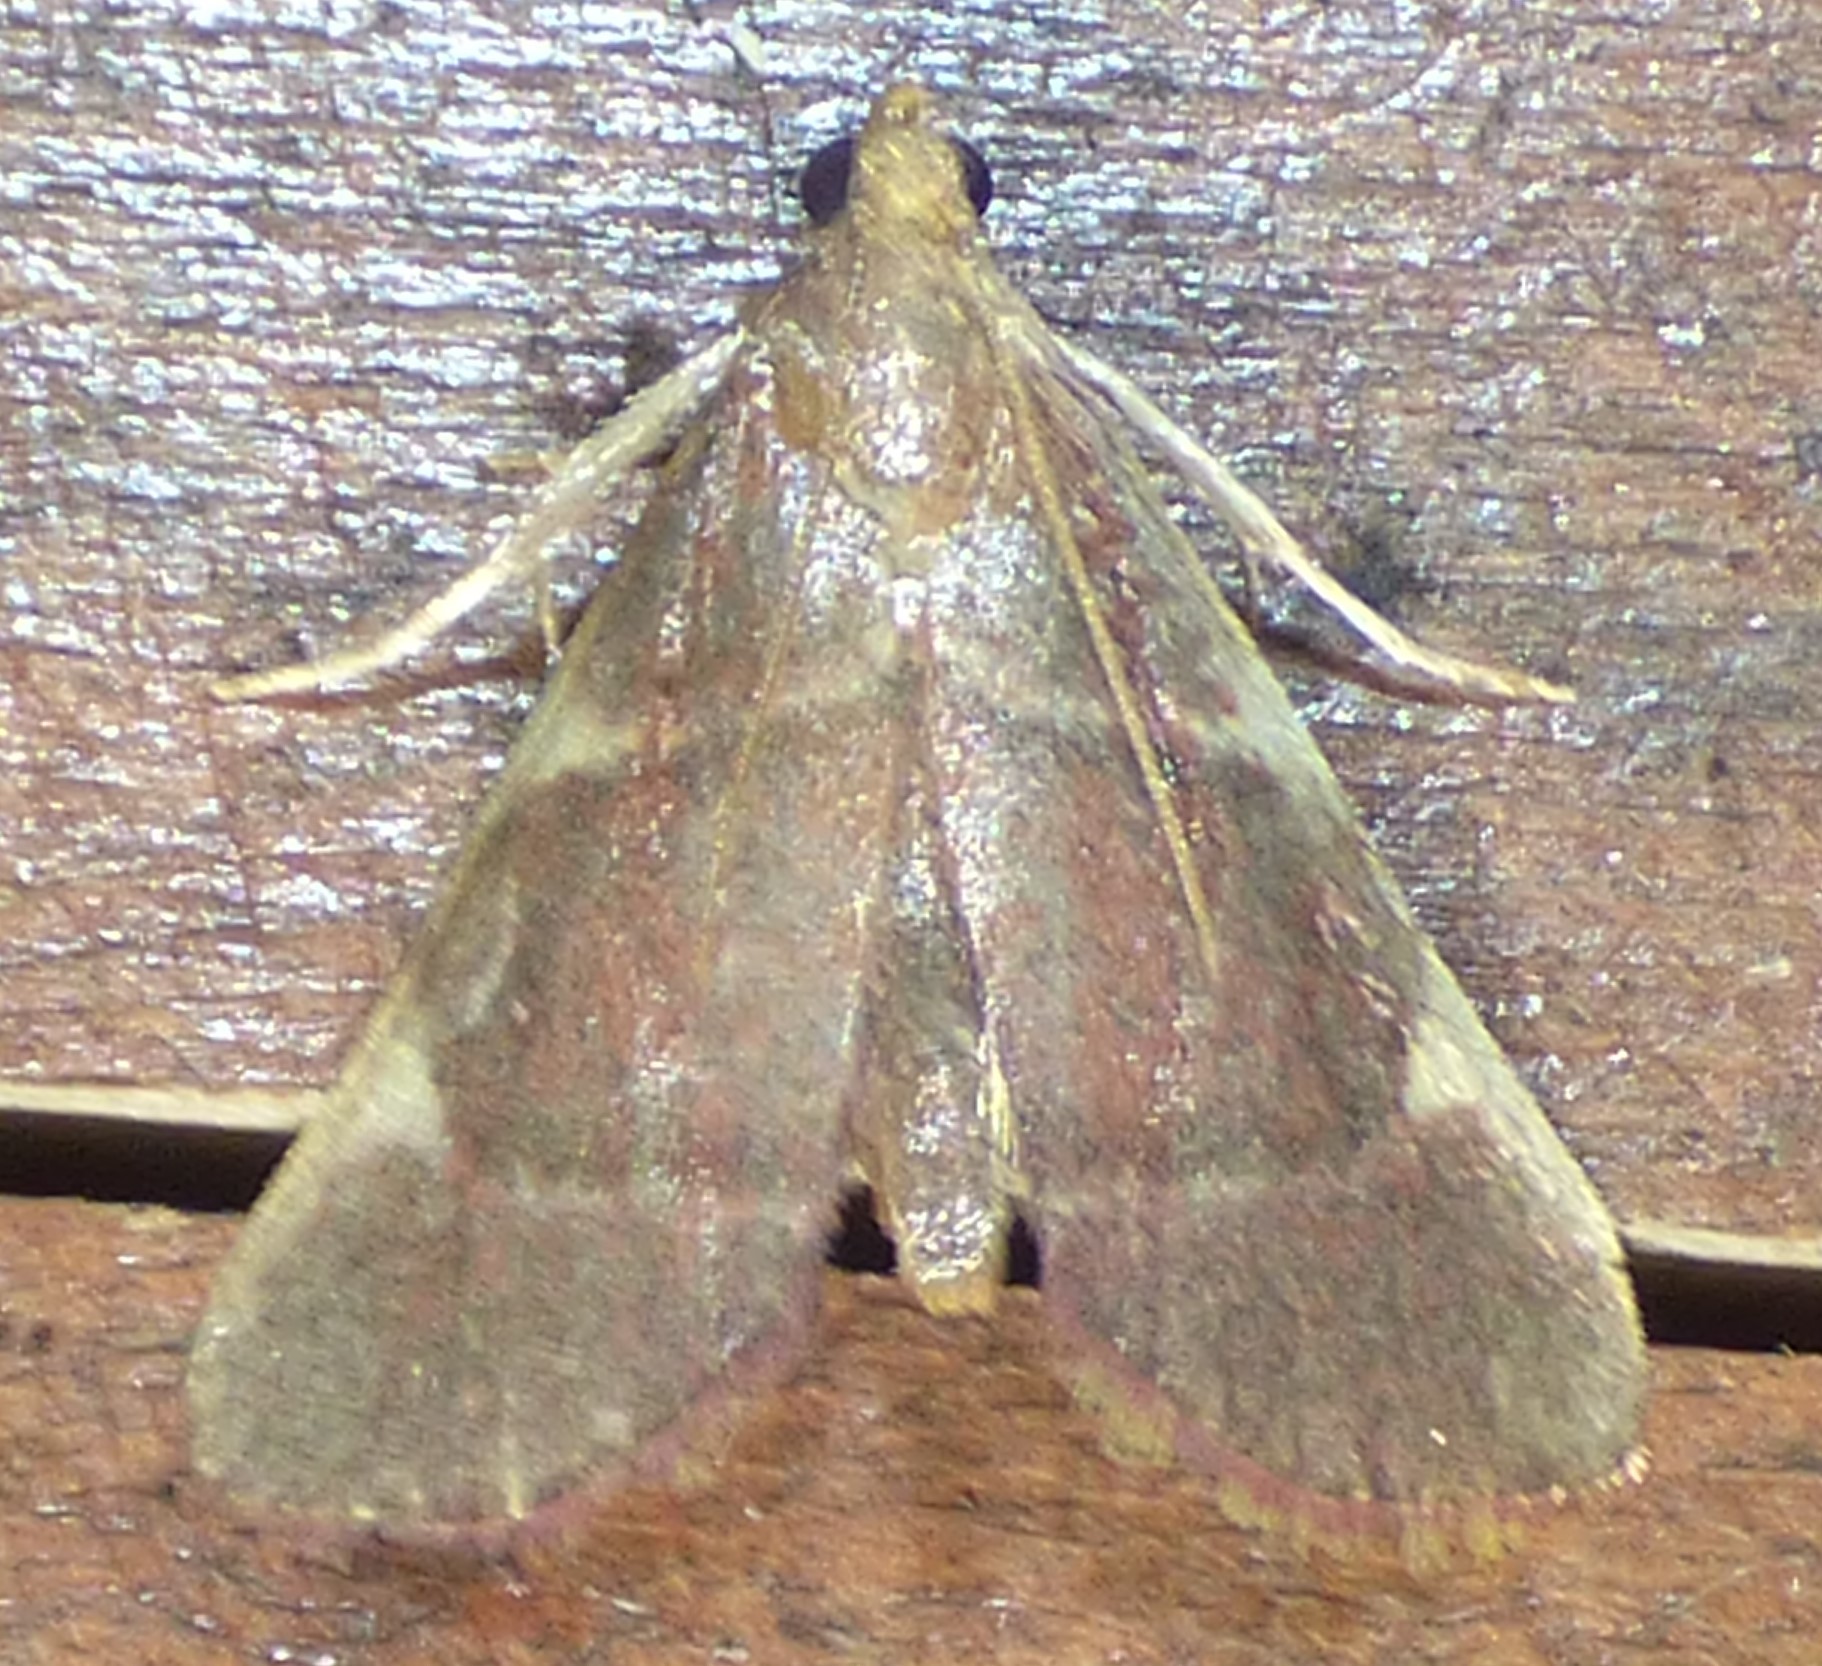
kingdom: Animalia
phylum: Arthropoda
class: Insecta
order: Lepidoptera
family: Pyralidae
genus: Hypsopygia
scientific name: Hypsopygia olinalis
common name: Yellow-fringed dolichomia moth
